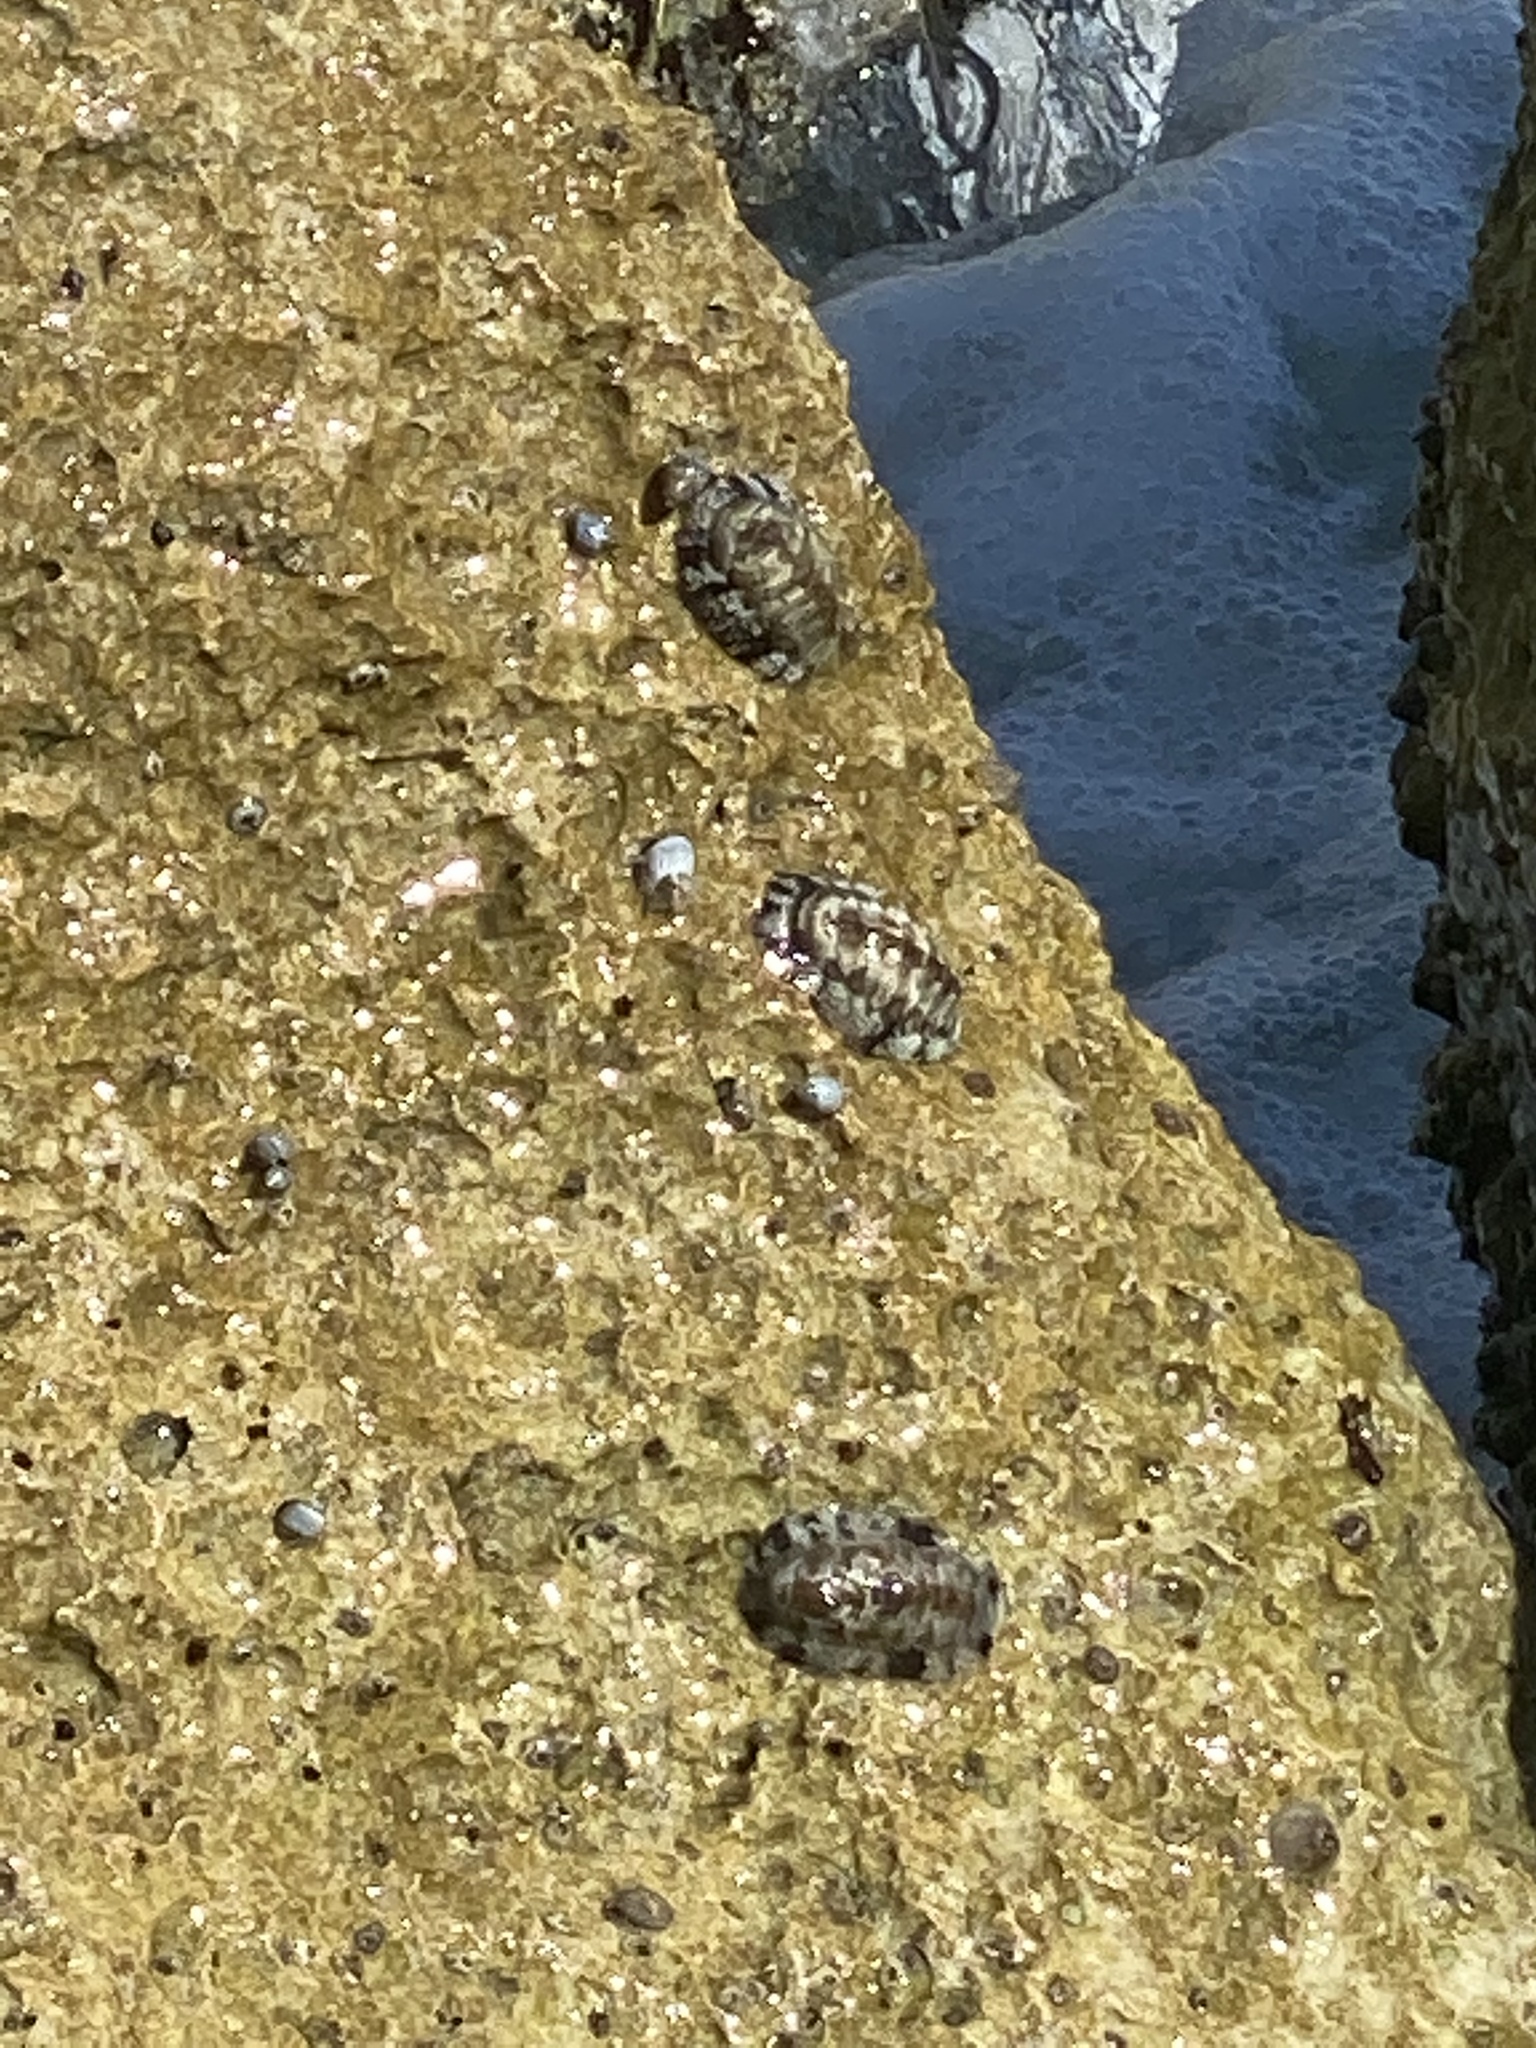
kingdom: Animalia
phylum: Mollusca
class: Polyplacophora
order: Chitonida
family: Chitonidae
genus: Acanthopleura
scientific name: Acanthopleura granulata
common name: West indian fuzzy chiton
